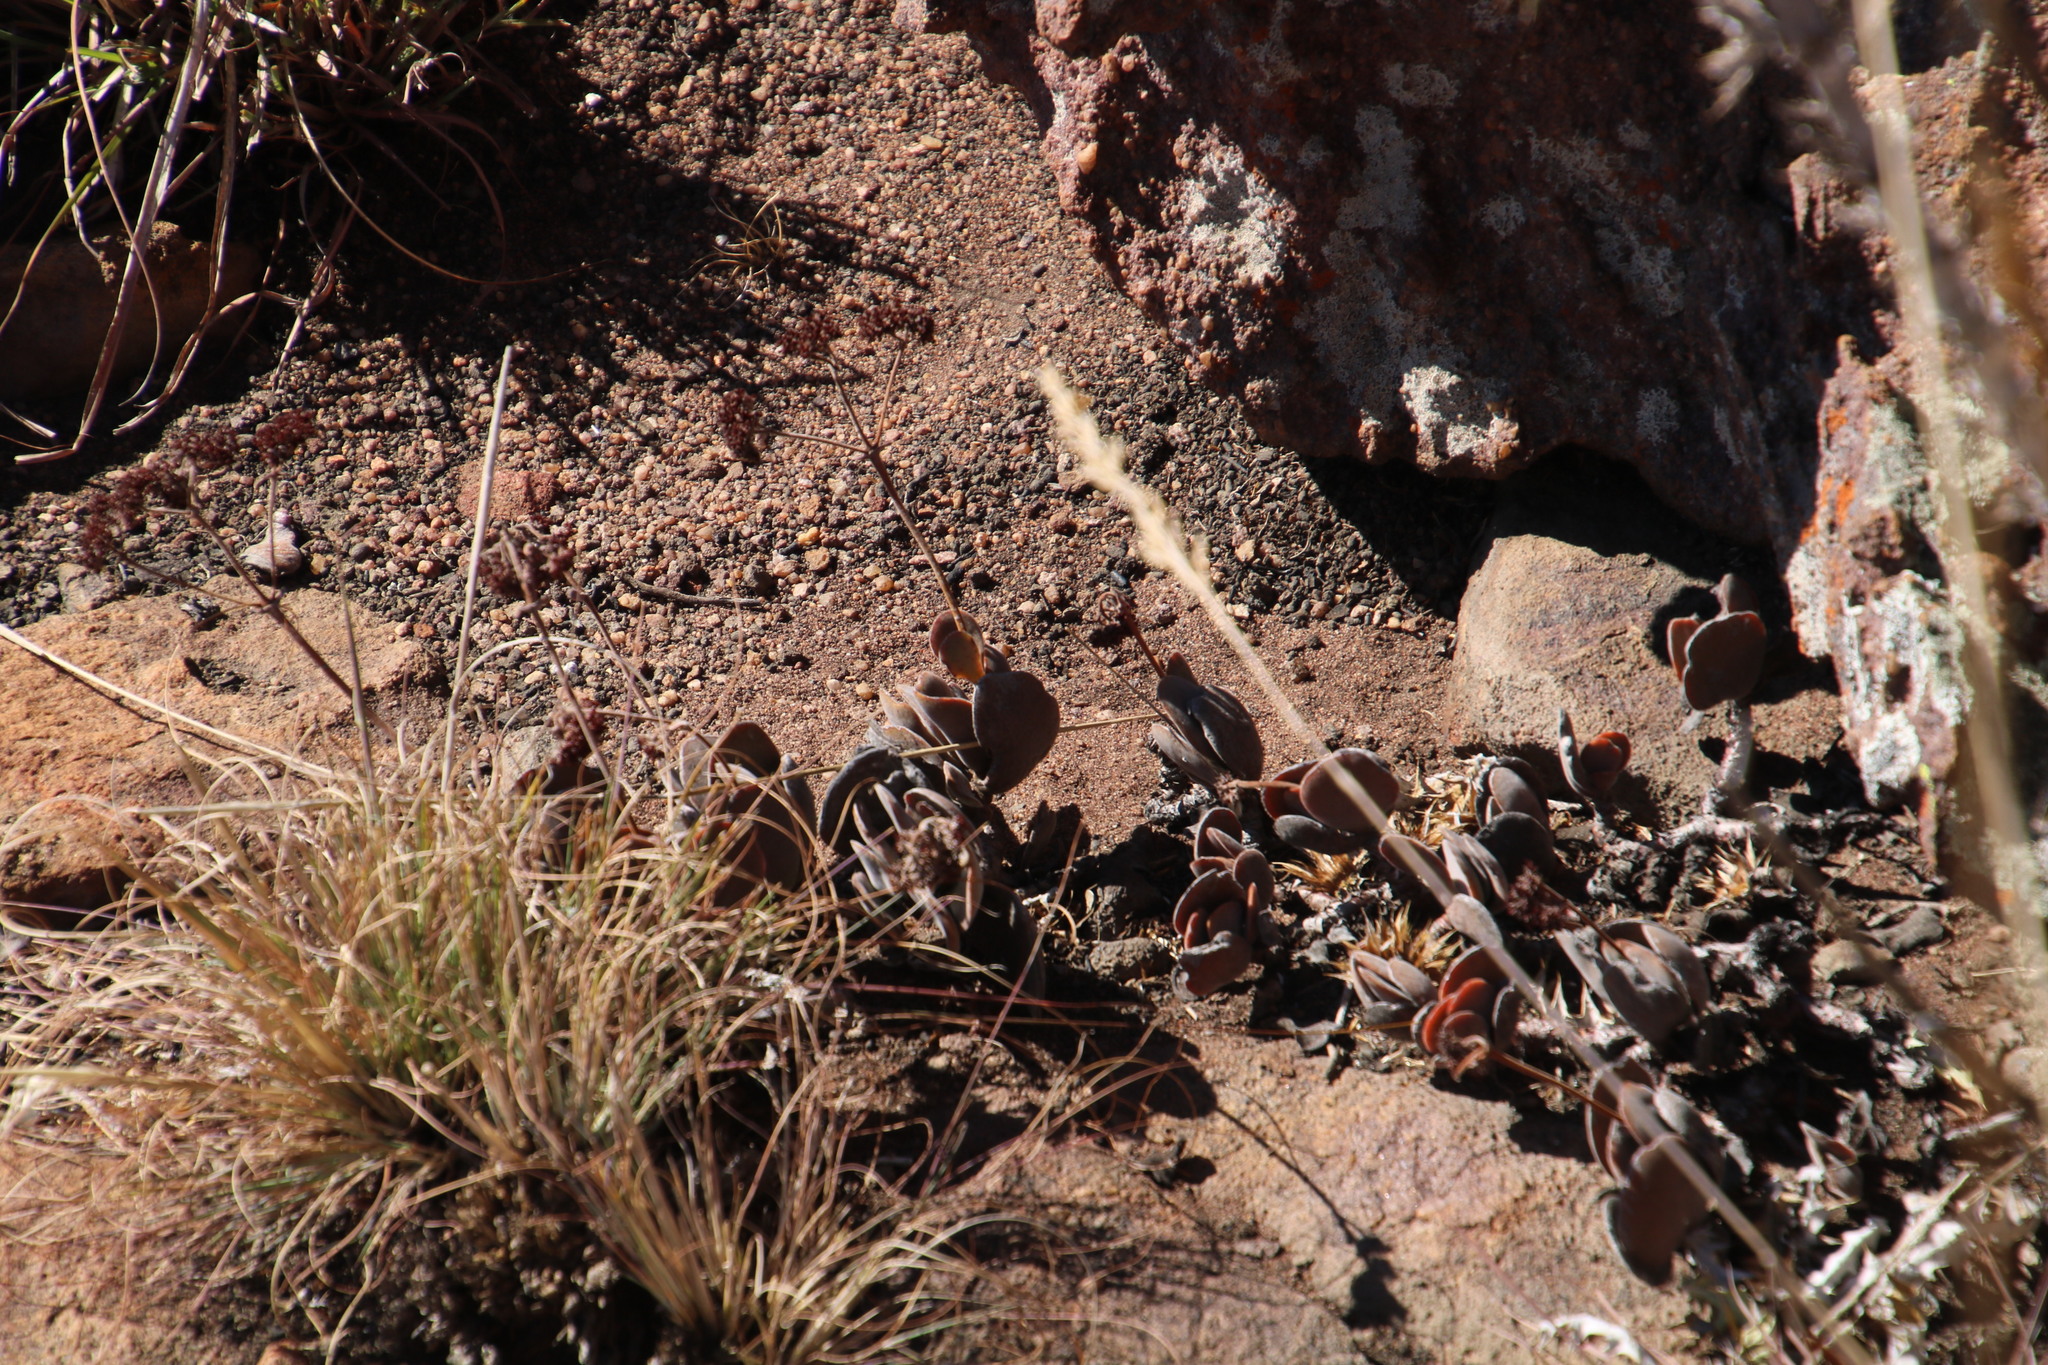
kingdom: Plantae
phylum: Tracheophyta
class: Magnoliopsida
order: Saxifragales
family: Crassulaceae
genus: Crassula
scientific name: Crassula globularioides
